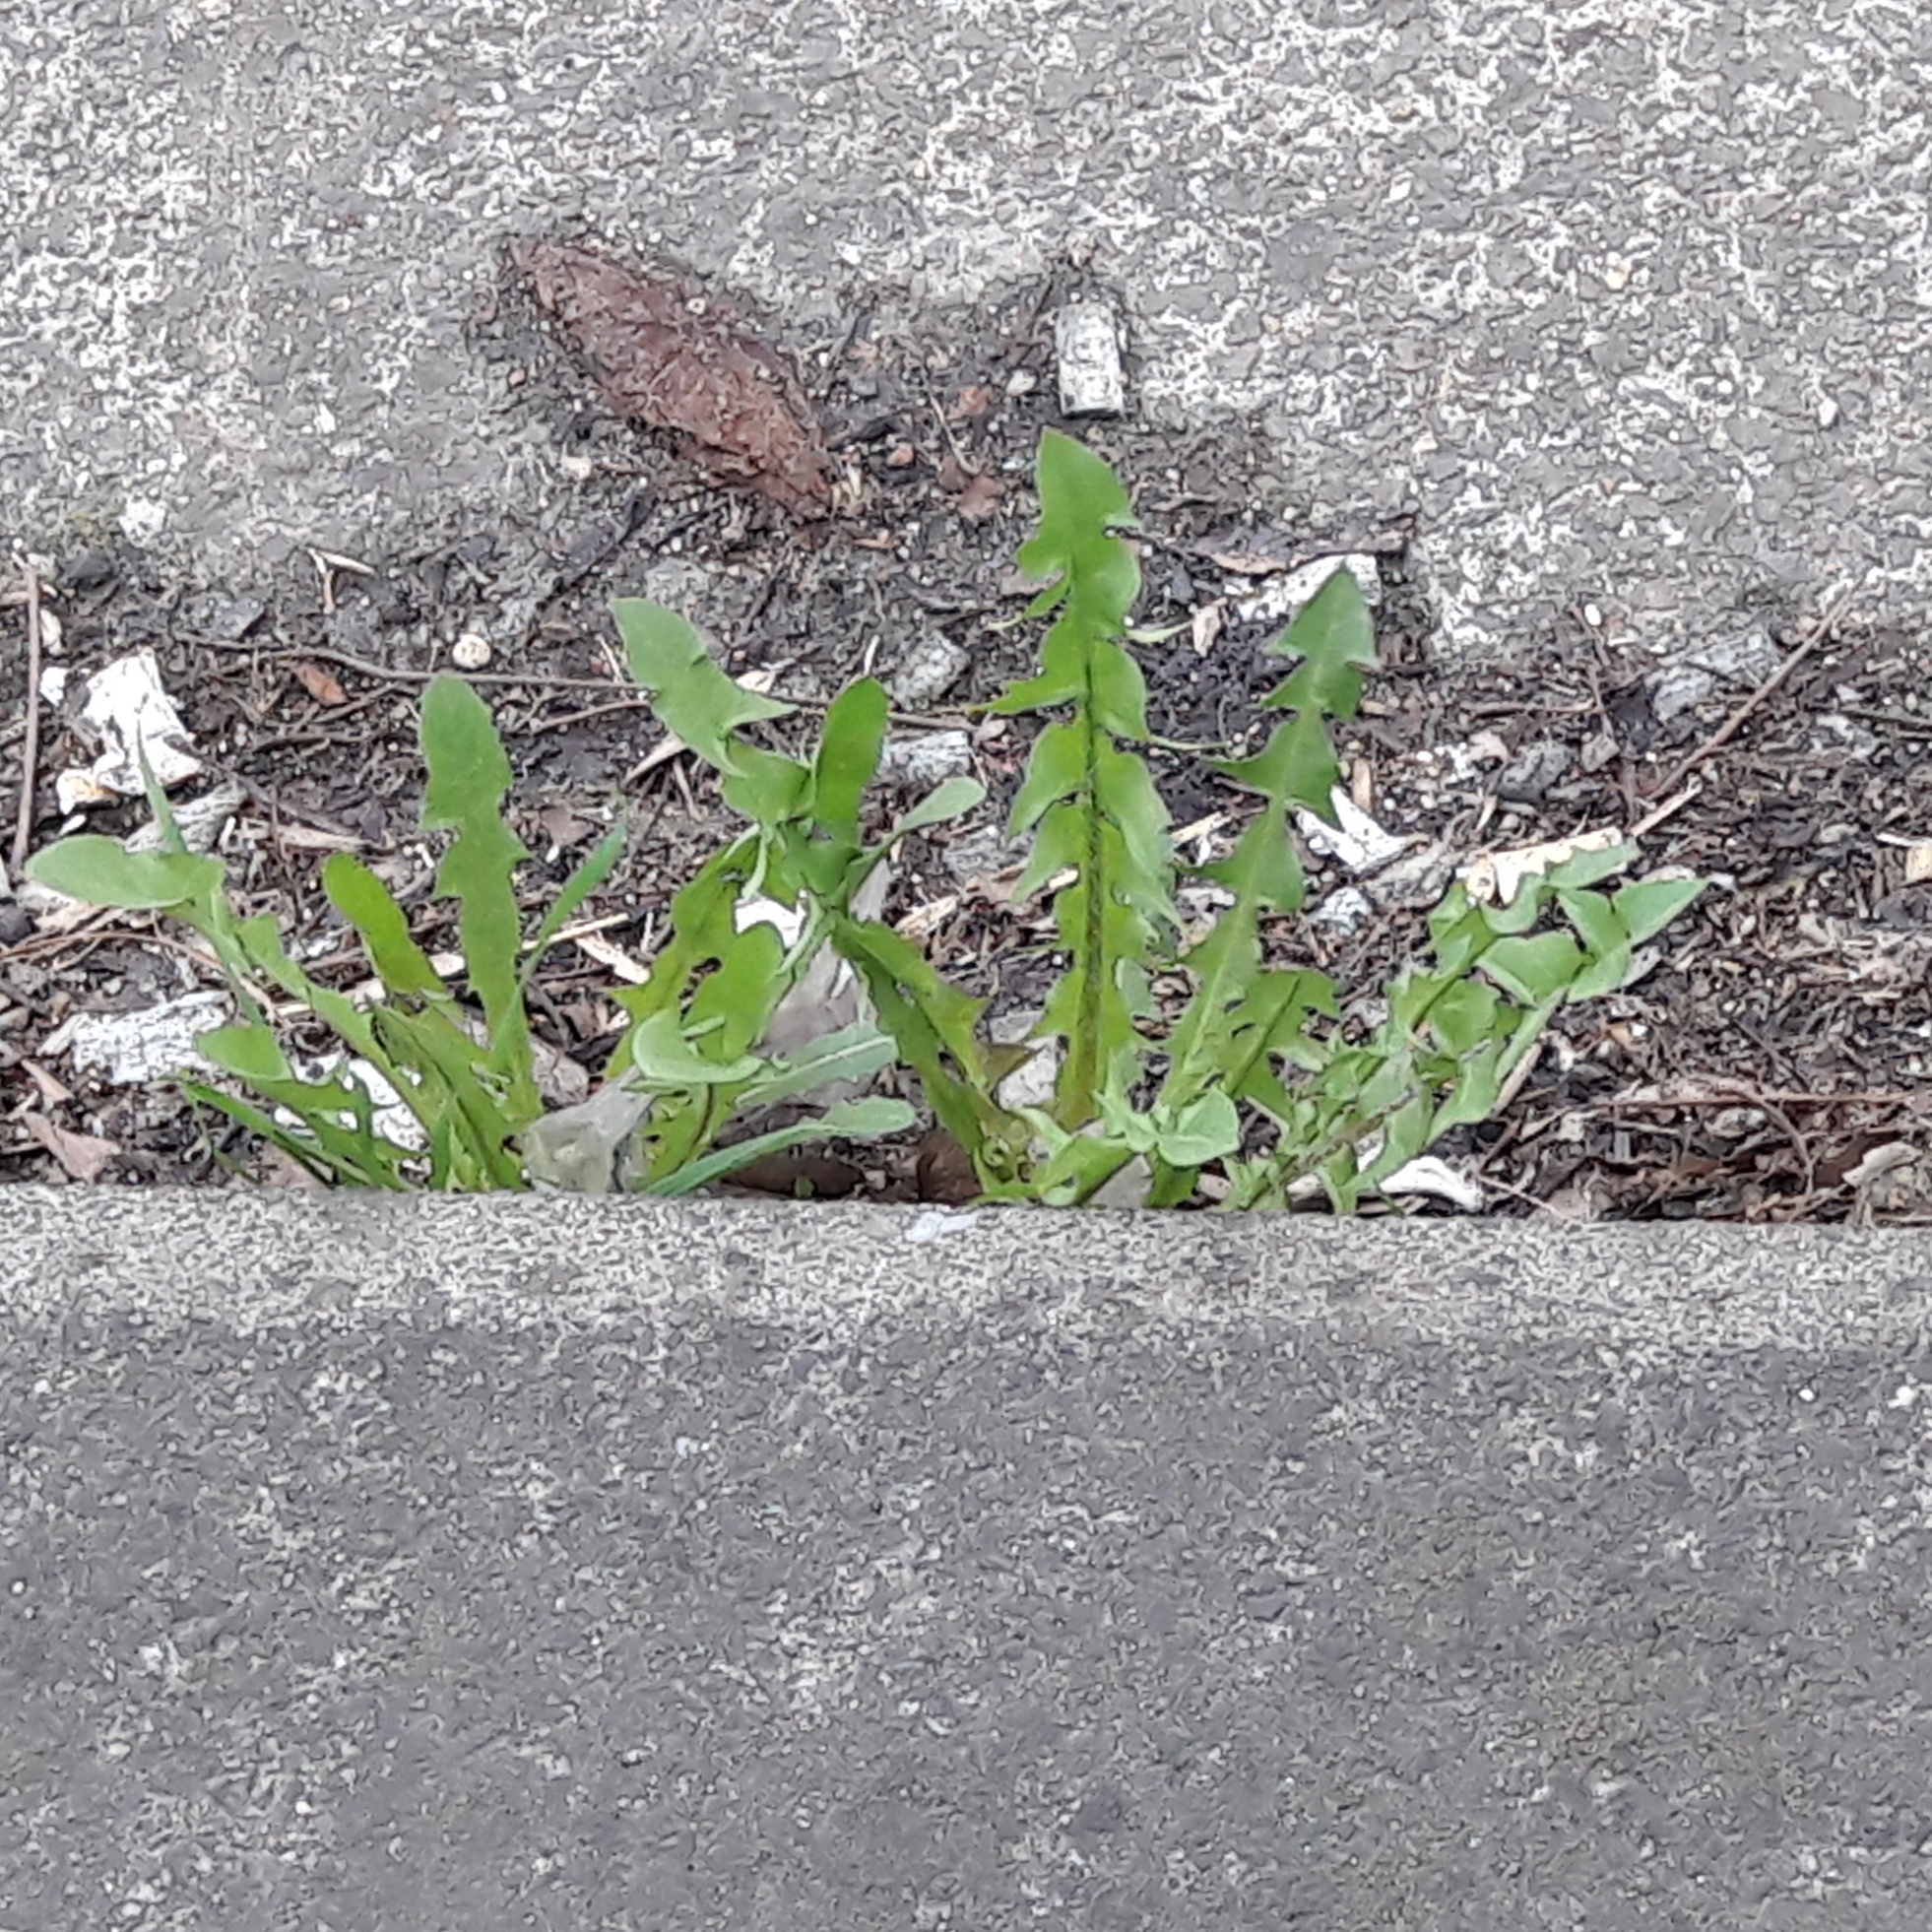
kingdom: Plantae
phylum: Tracheophyta
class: Magnoliopsida
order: Asterales
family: Asteraceae
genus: Taraxacum
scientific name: Taraxacum officinale
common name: Common dandelion
